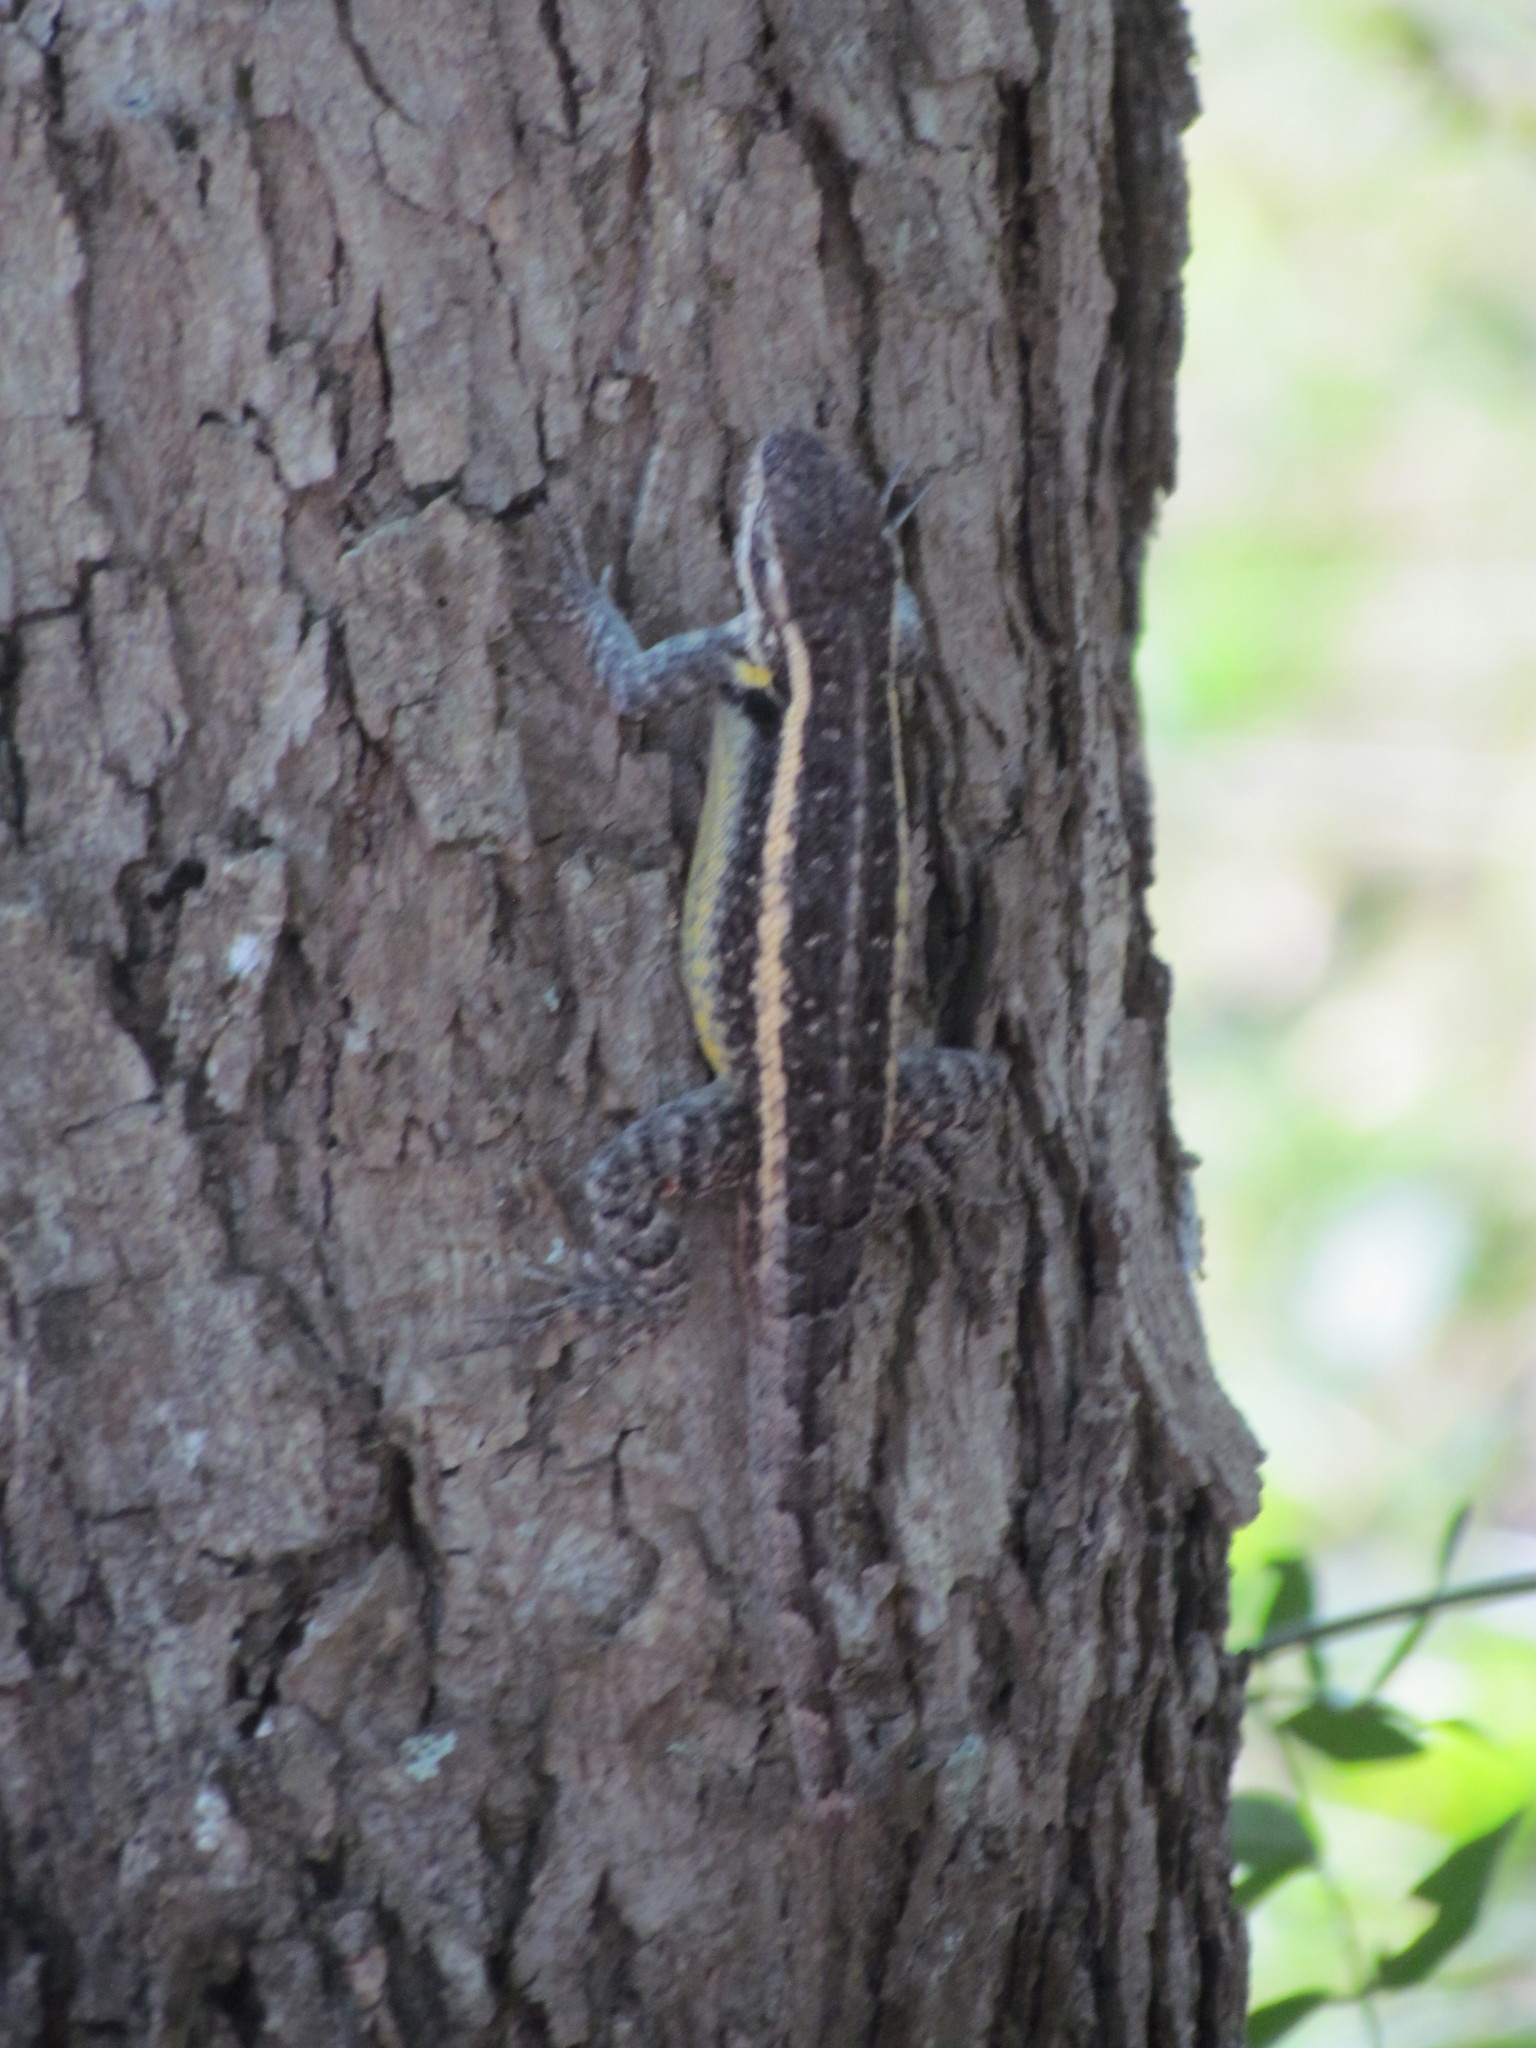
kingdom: Animalia
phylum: Chordata
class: Squamata
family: Phrynosomatidae
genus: Sceloporus
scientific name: Sceloporus variabilis
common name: Rosebelly lizard
